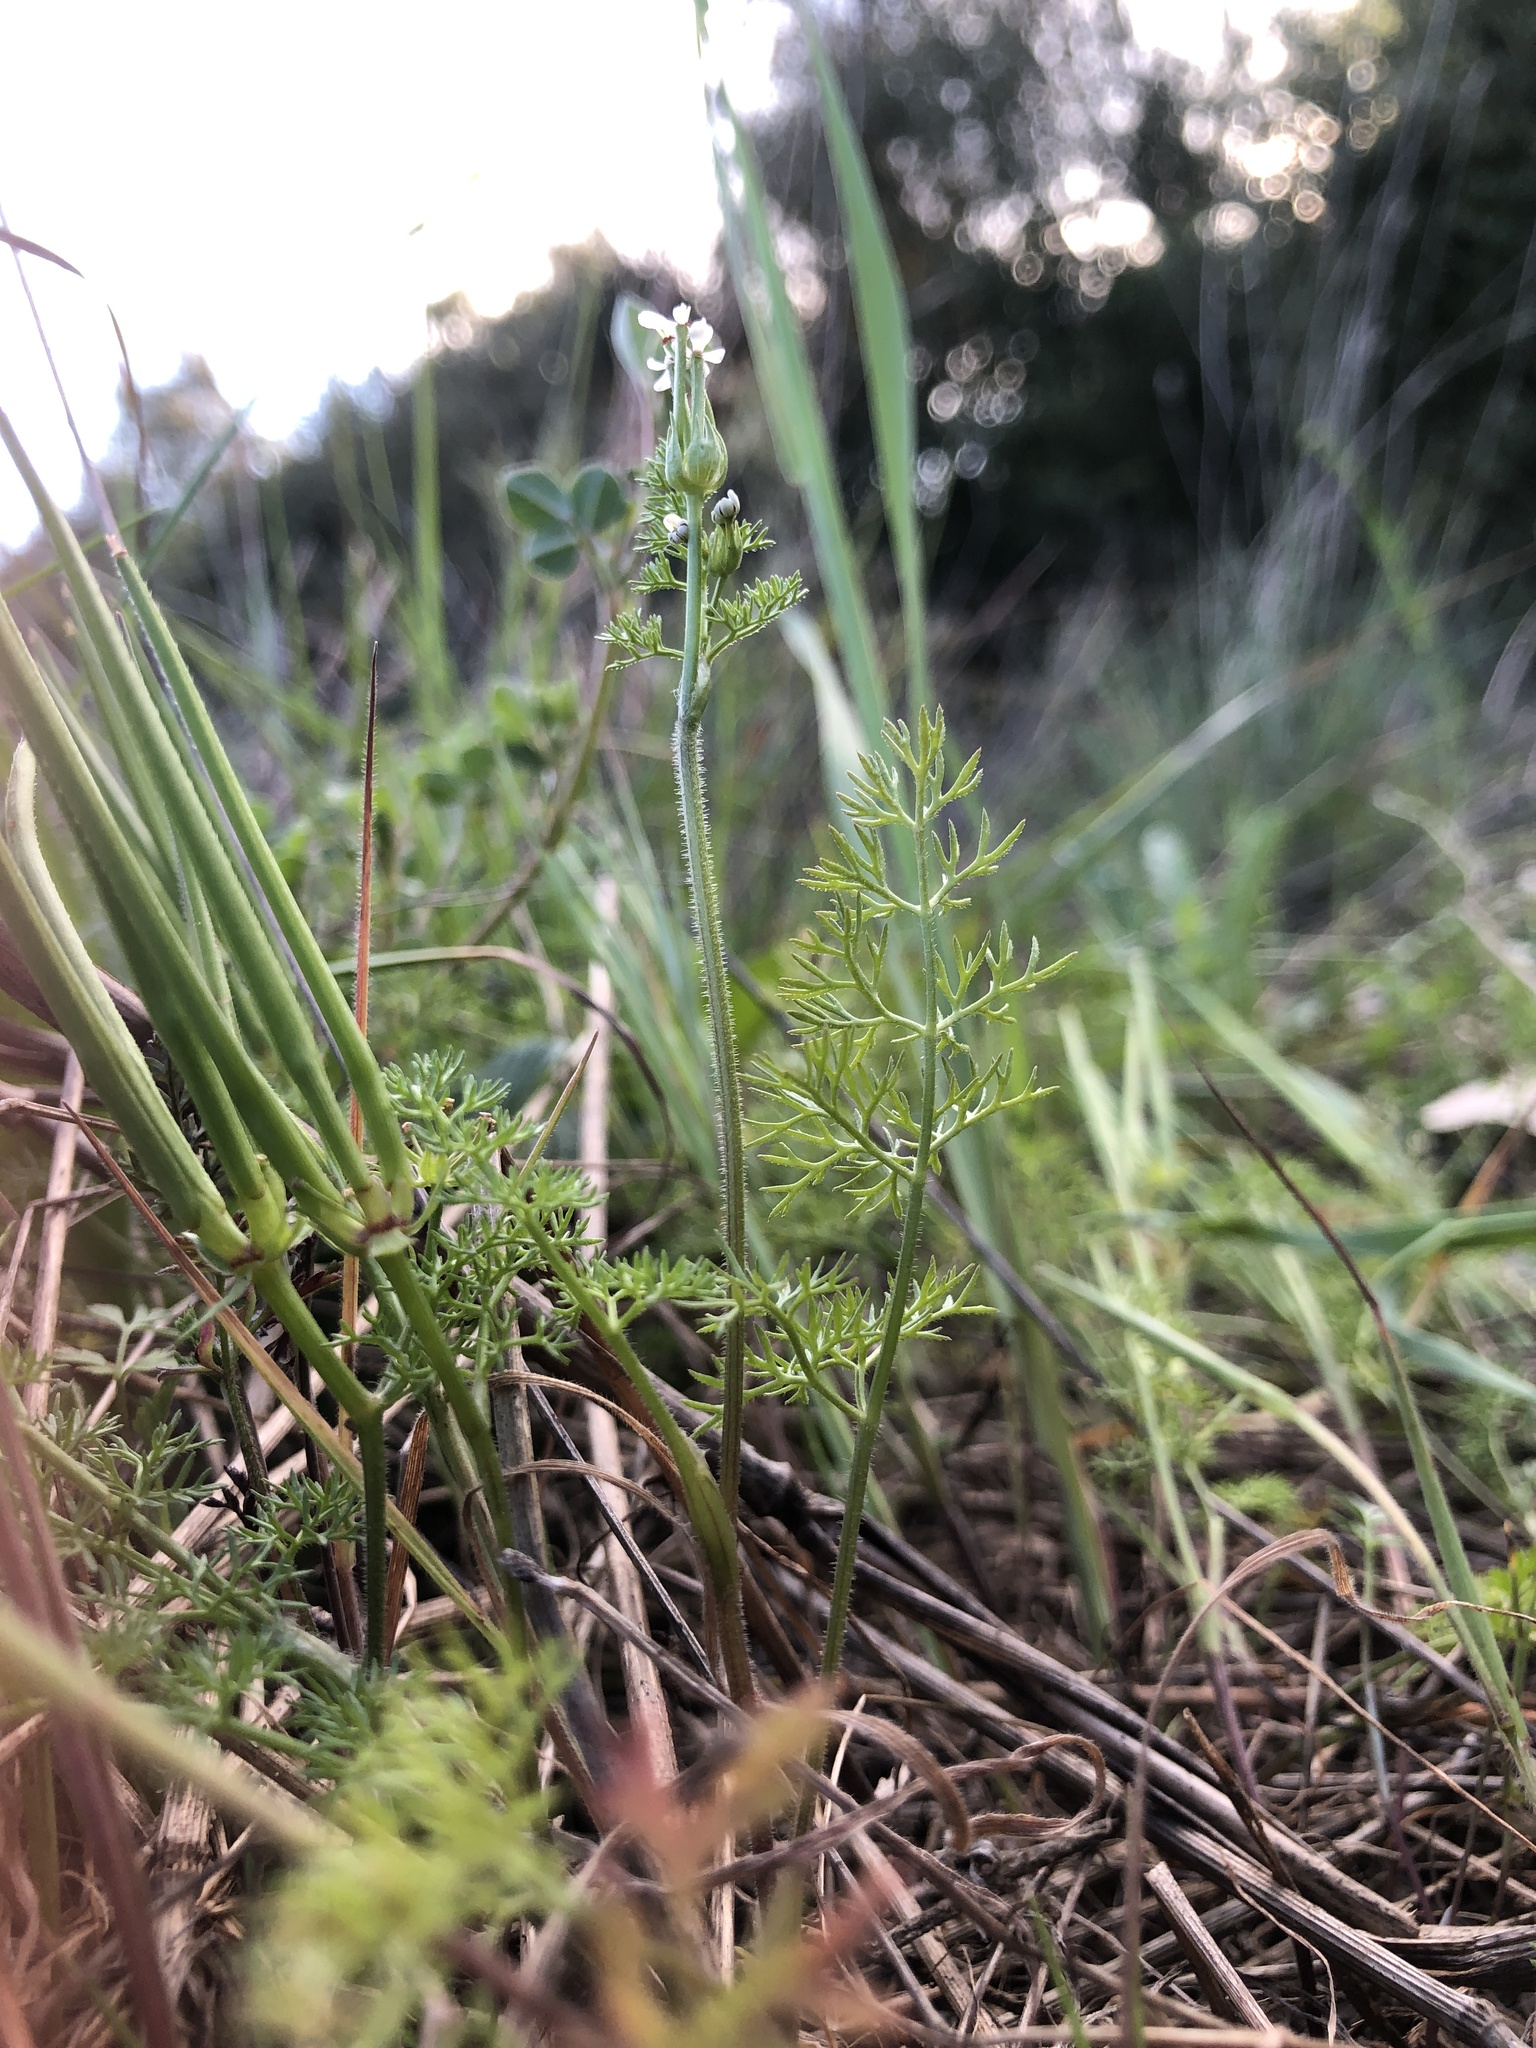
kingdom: Plantae
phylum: Tracheophyta
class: Magnoliopsida
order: Apiales
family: Apiaceae
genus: Scandix
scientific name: Scandix pecten-veneris
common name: Shepherd's-needle
